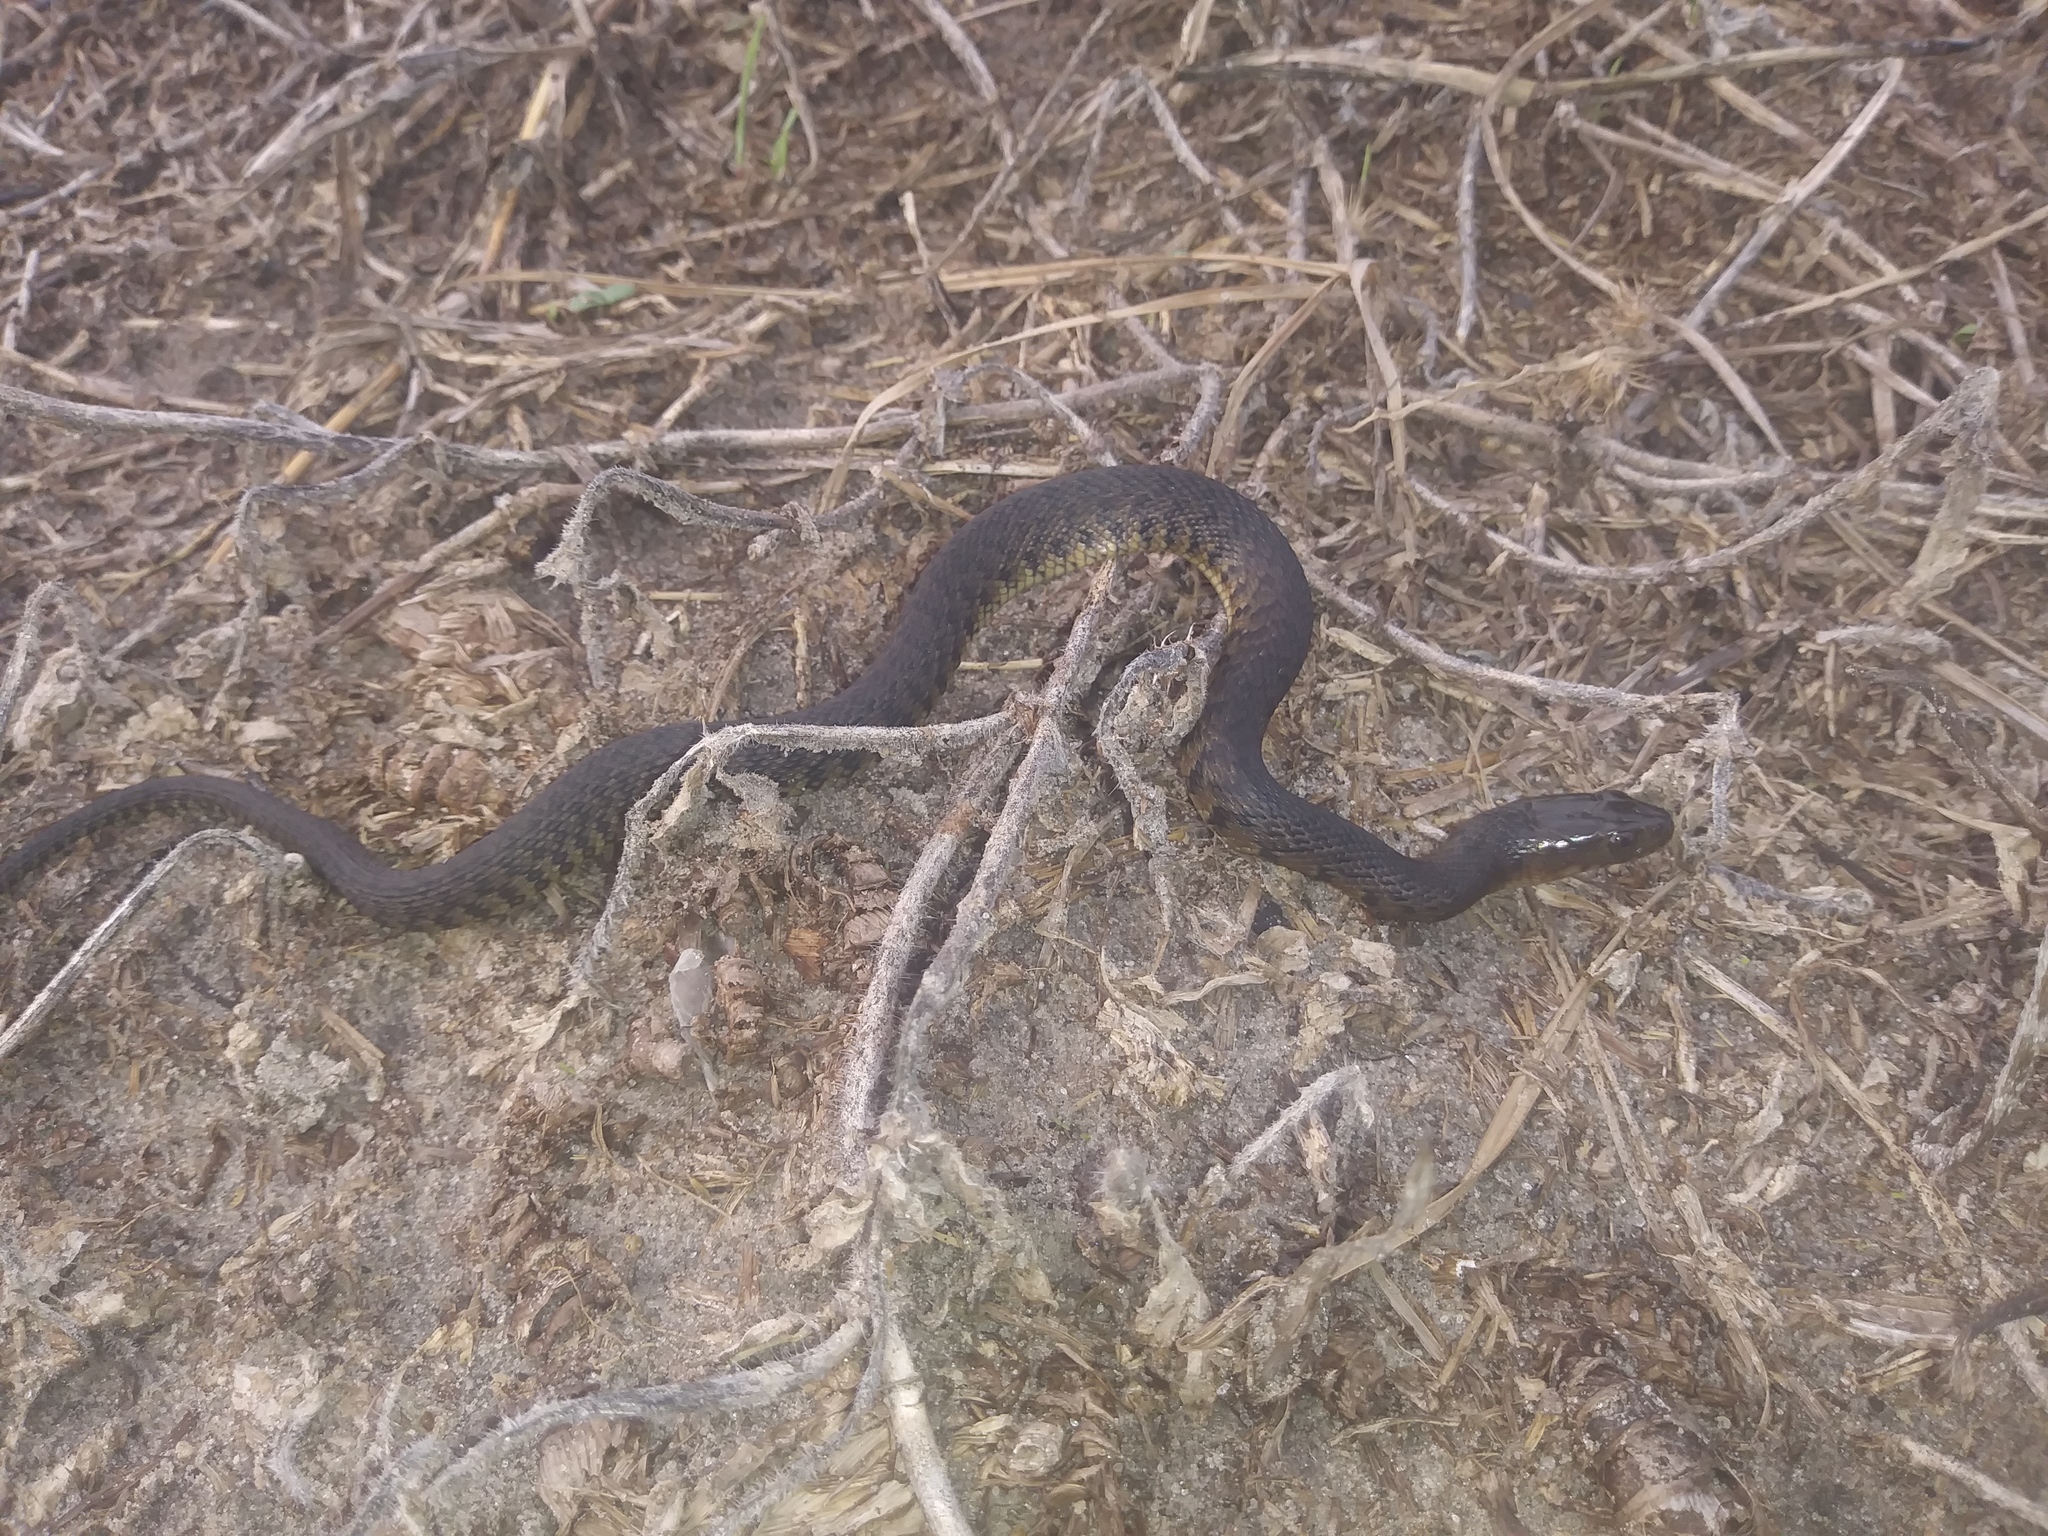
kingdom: Animalia
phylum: Chordata
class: Squamata
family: Colubridae
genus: Nerodia
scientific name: Nerodia floridana
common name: Florida green watersnake
